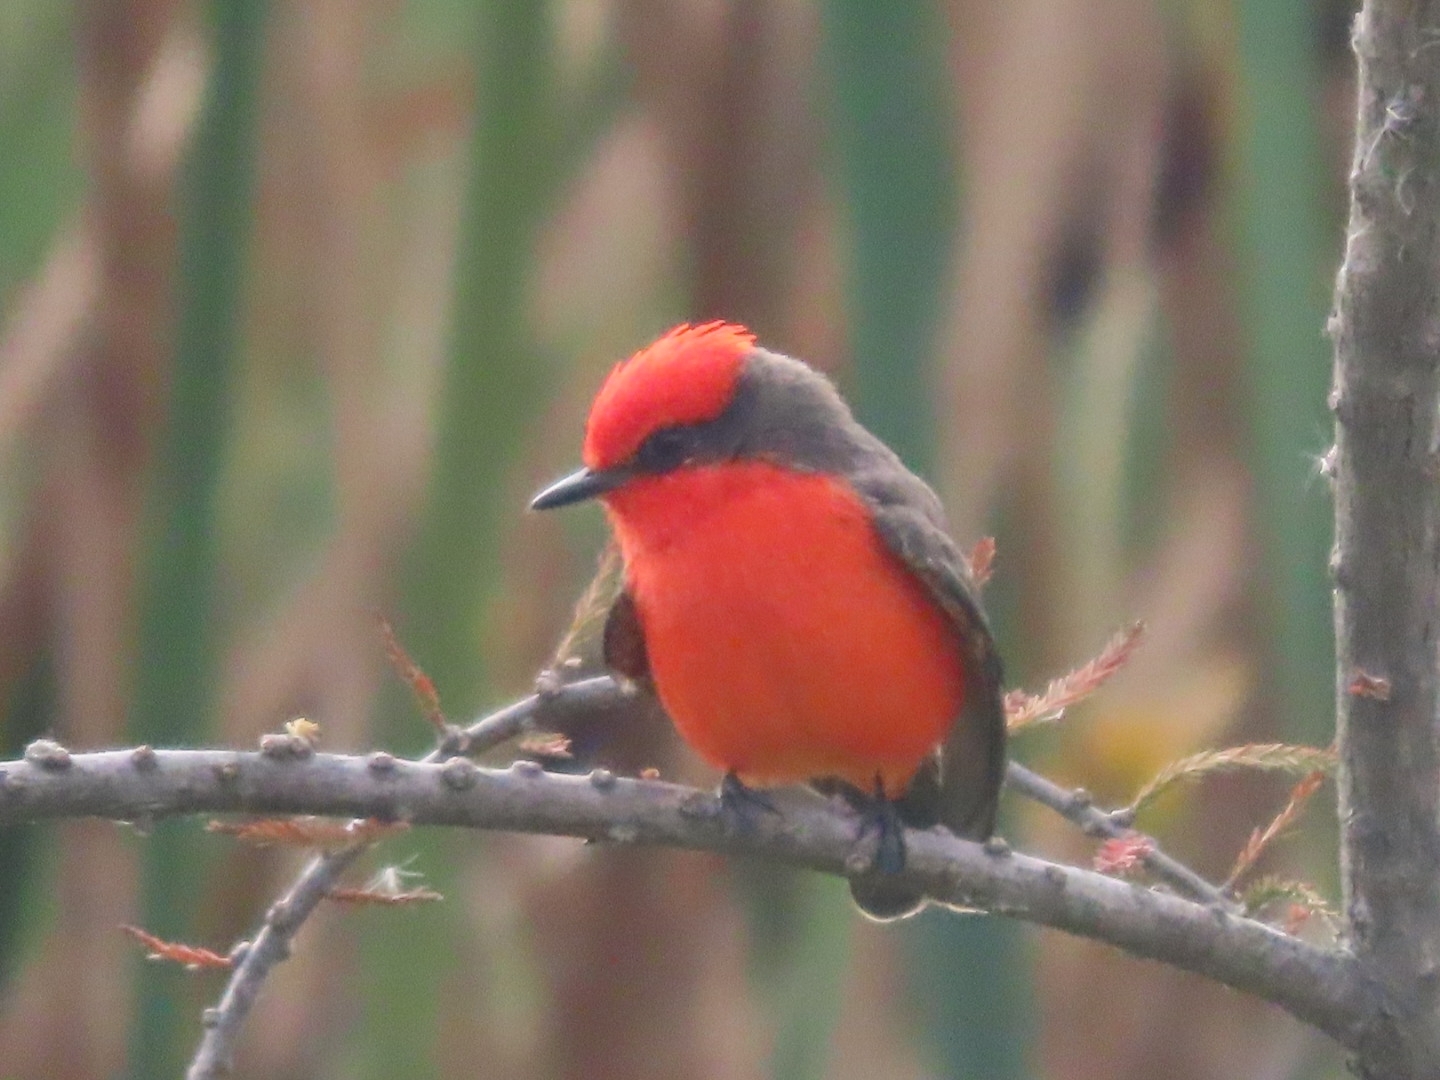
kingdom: Animalia
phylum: Chordata
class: Aves
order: Passeriformes
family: Tyrannidae
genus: Pyrocephalus
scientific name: Pyrocephalus rubinus
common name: Vermilion flycatcher
